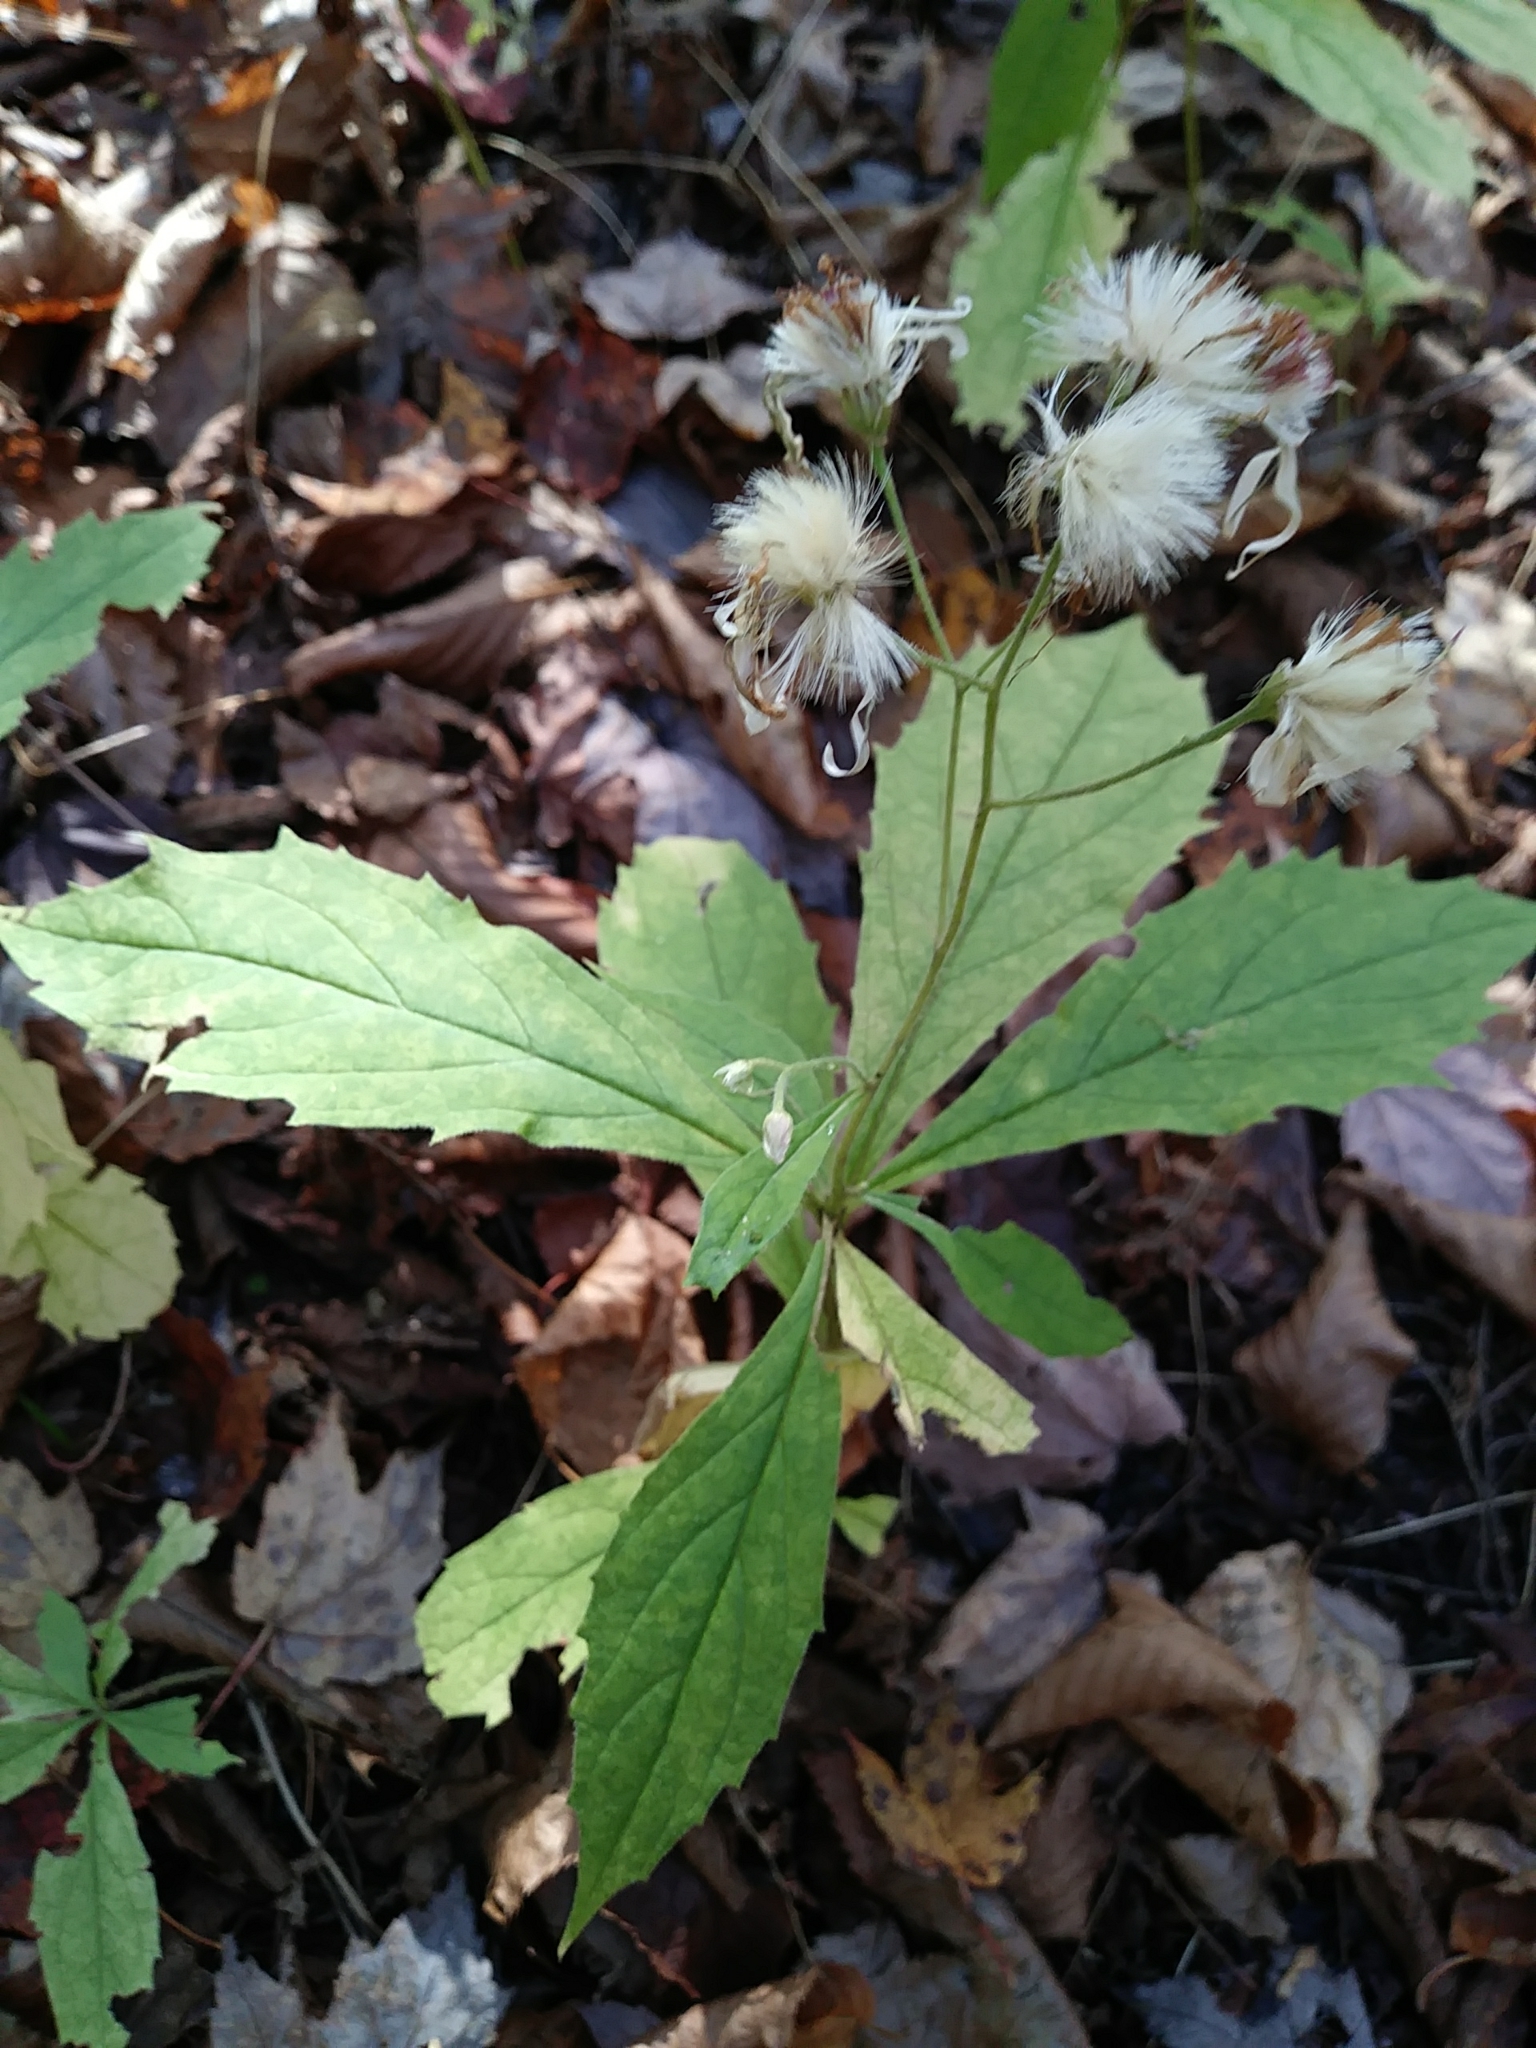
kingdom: Plantae
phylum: Tracheophyta
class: Magnoliopsida
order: Asterales
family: Asteraceae
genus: Oclemena
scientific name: Oclemena acuminata
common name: Mountain aster
